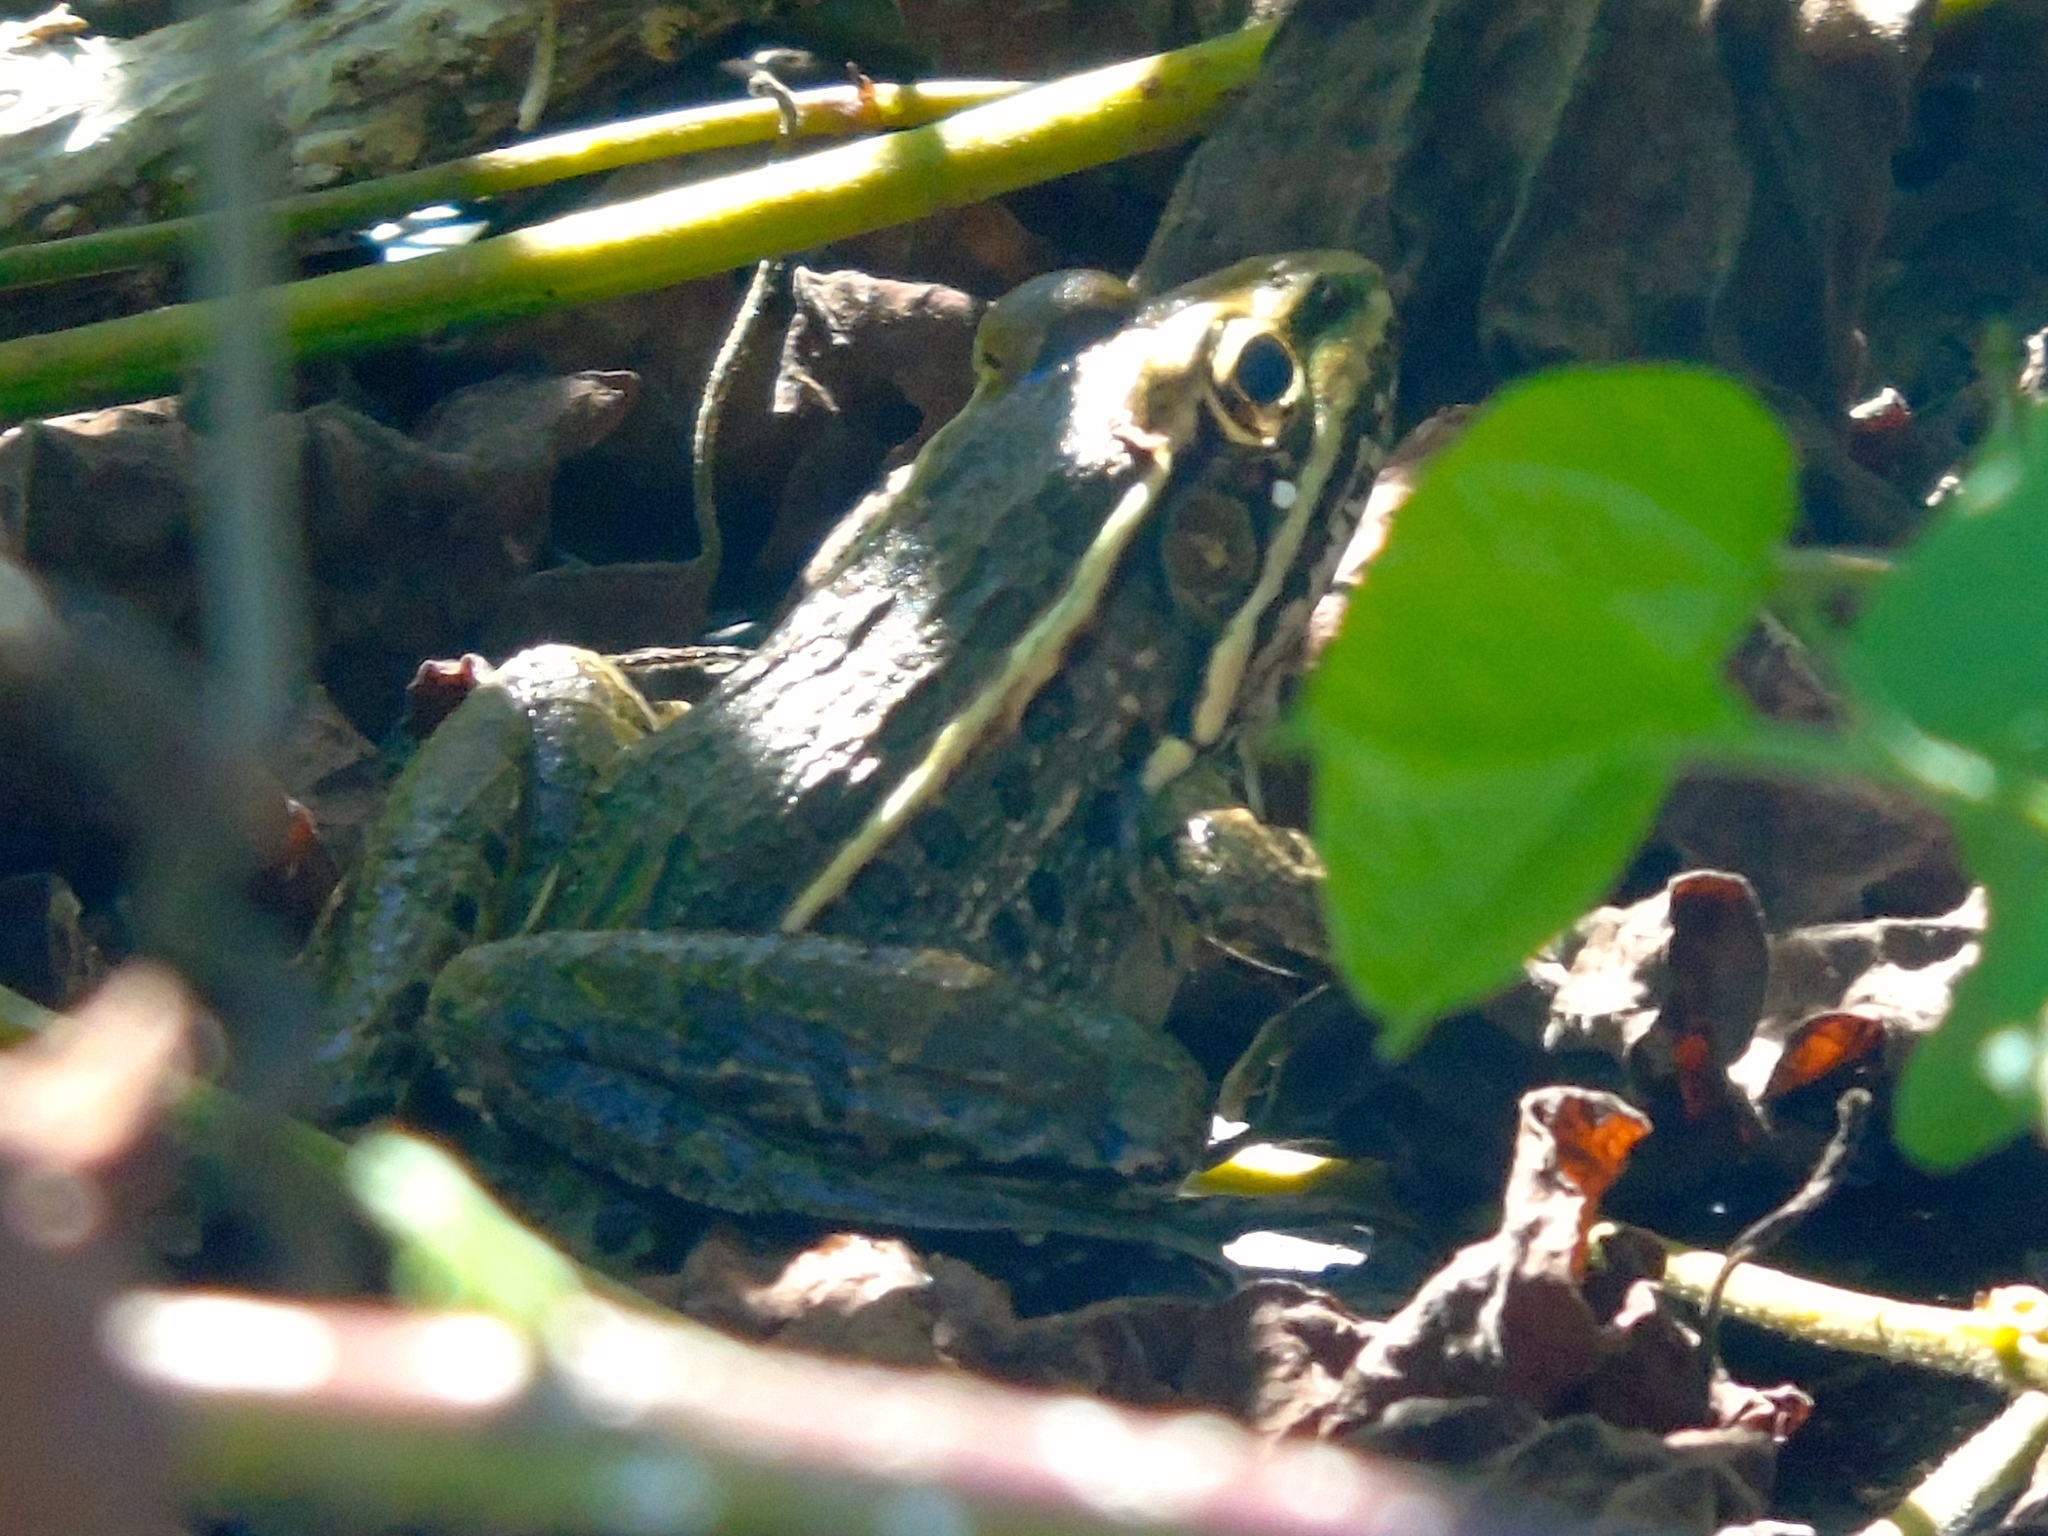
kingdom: Animalia
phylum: Chordata
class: Amphibia
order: Anura
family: Ranidae
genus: Lithobates
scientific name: Lithobates magnaocularis
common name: Northwest mexico leopard frog
